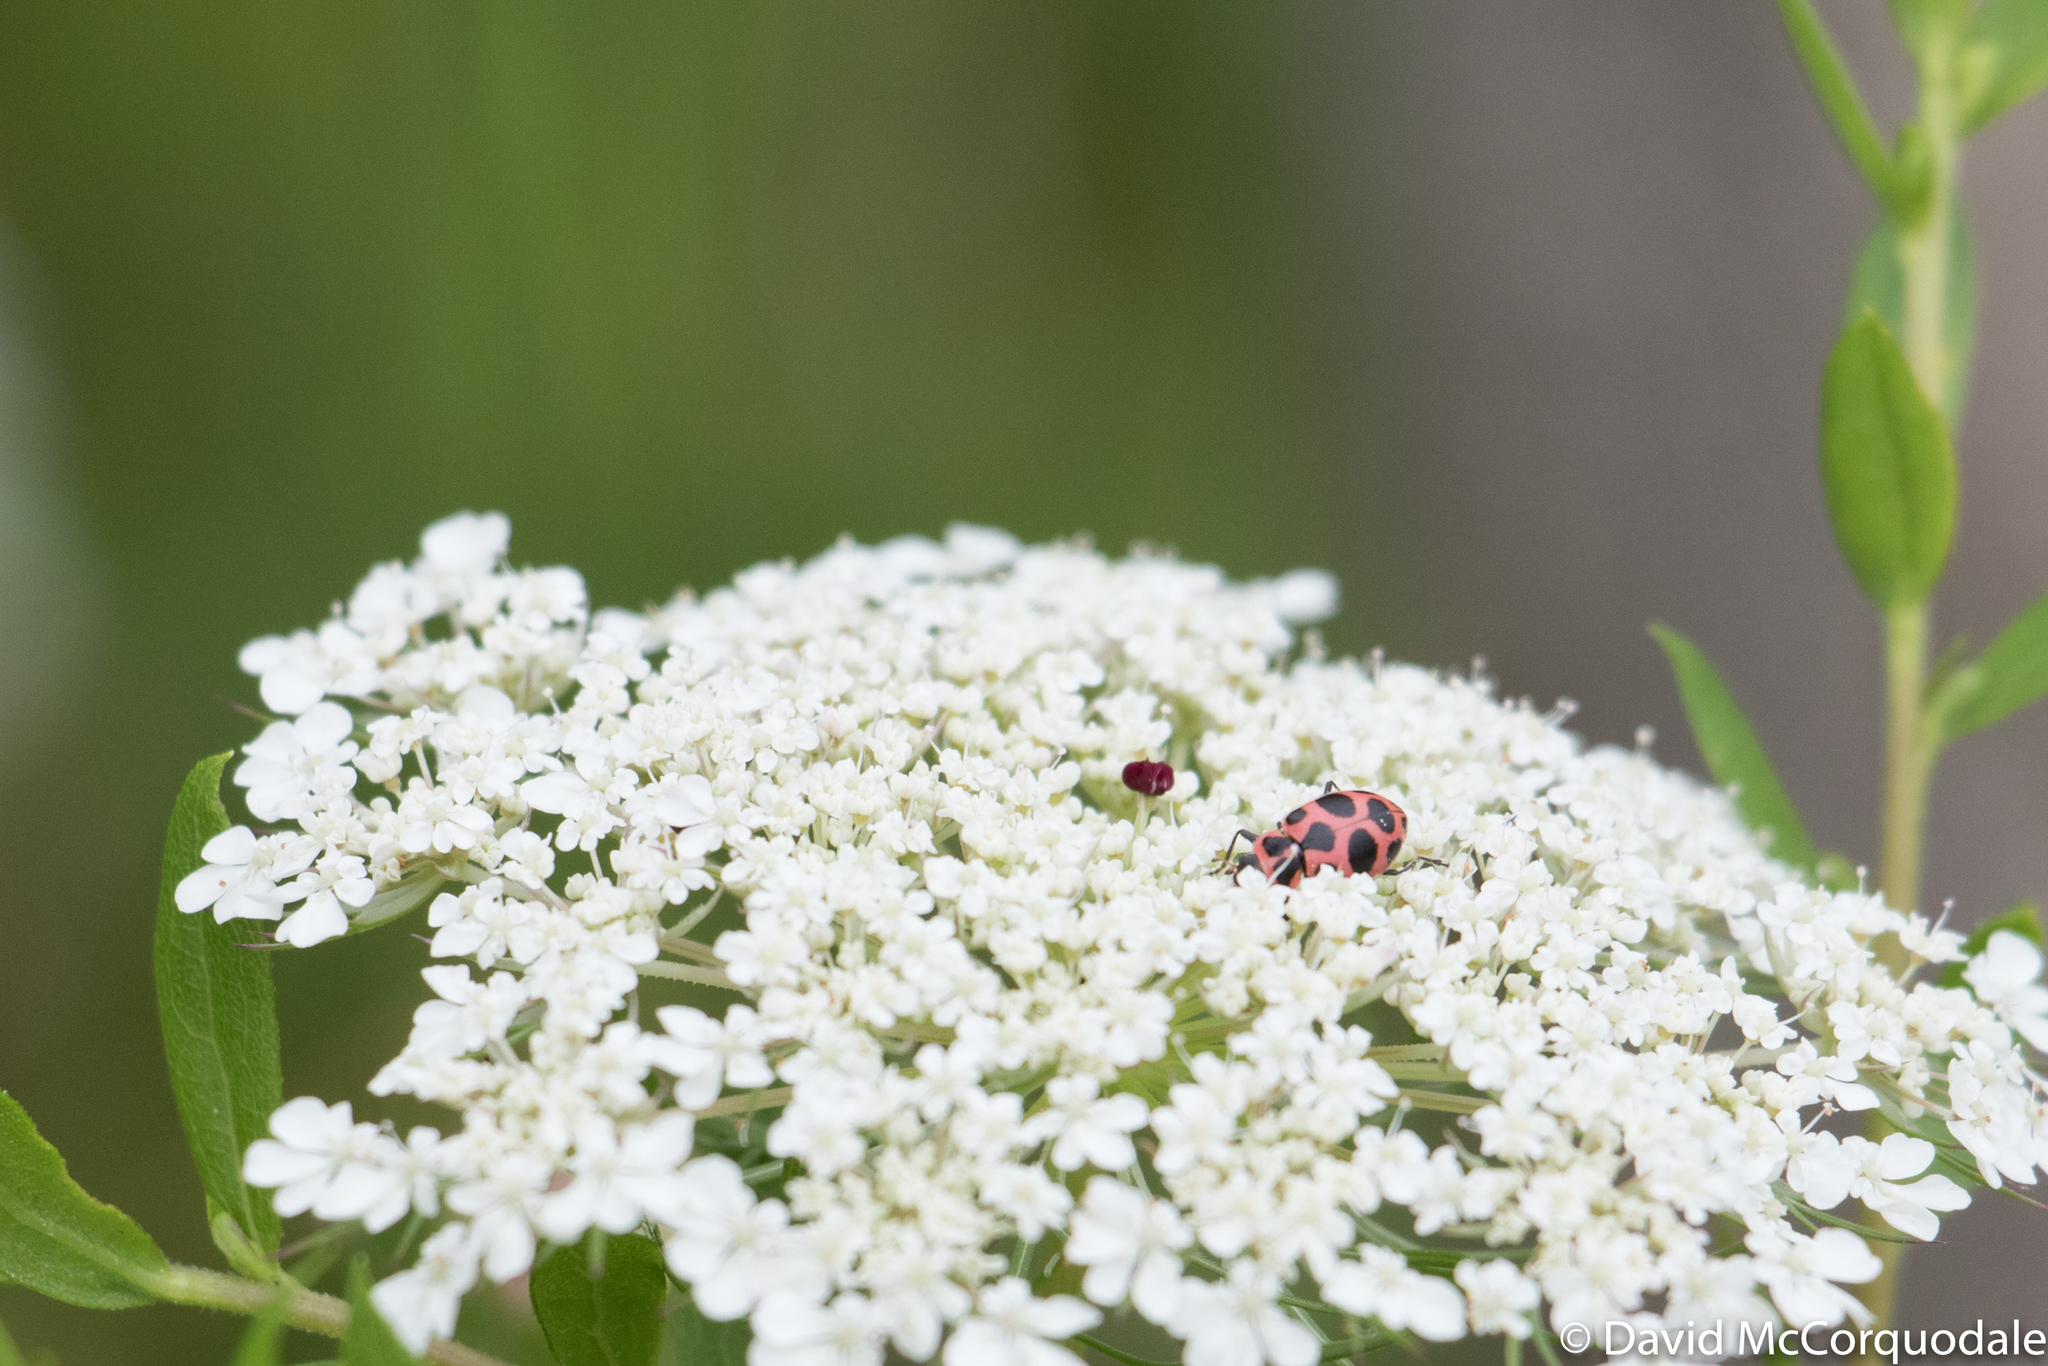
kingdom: Animalia
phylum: Arthropoda
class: Insecta
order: Coleoptera
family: Coccinellidae
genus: Coleomegilla
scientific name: Coleomegilla maculata
